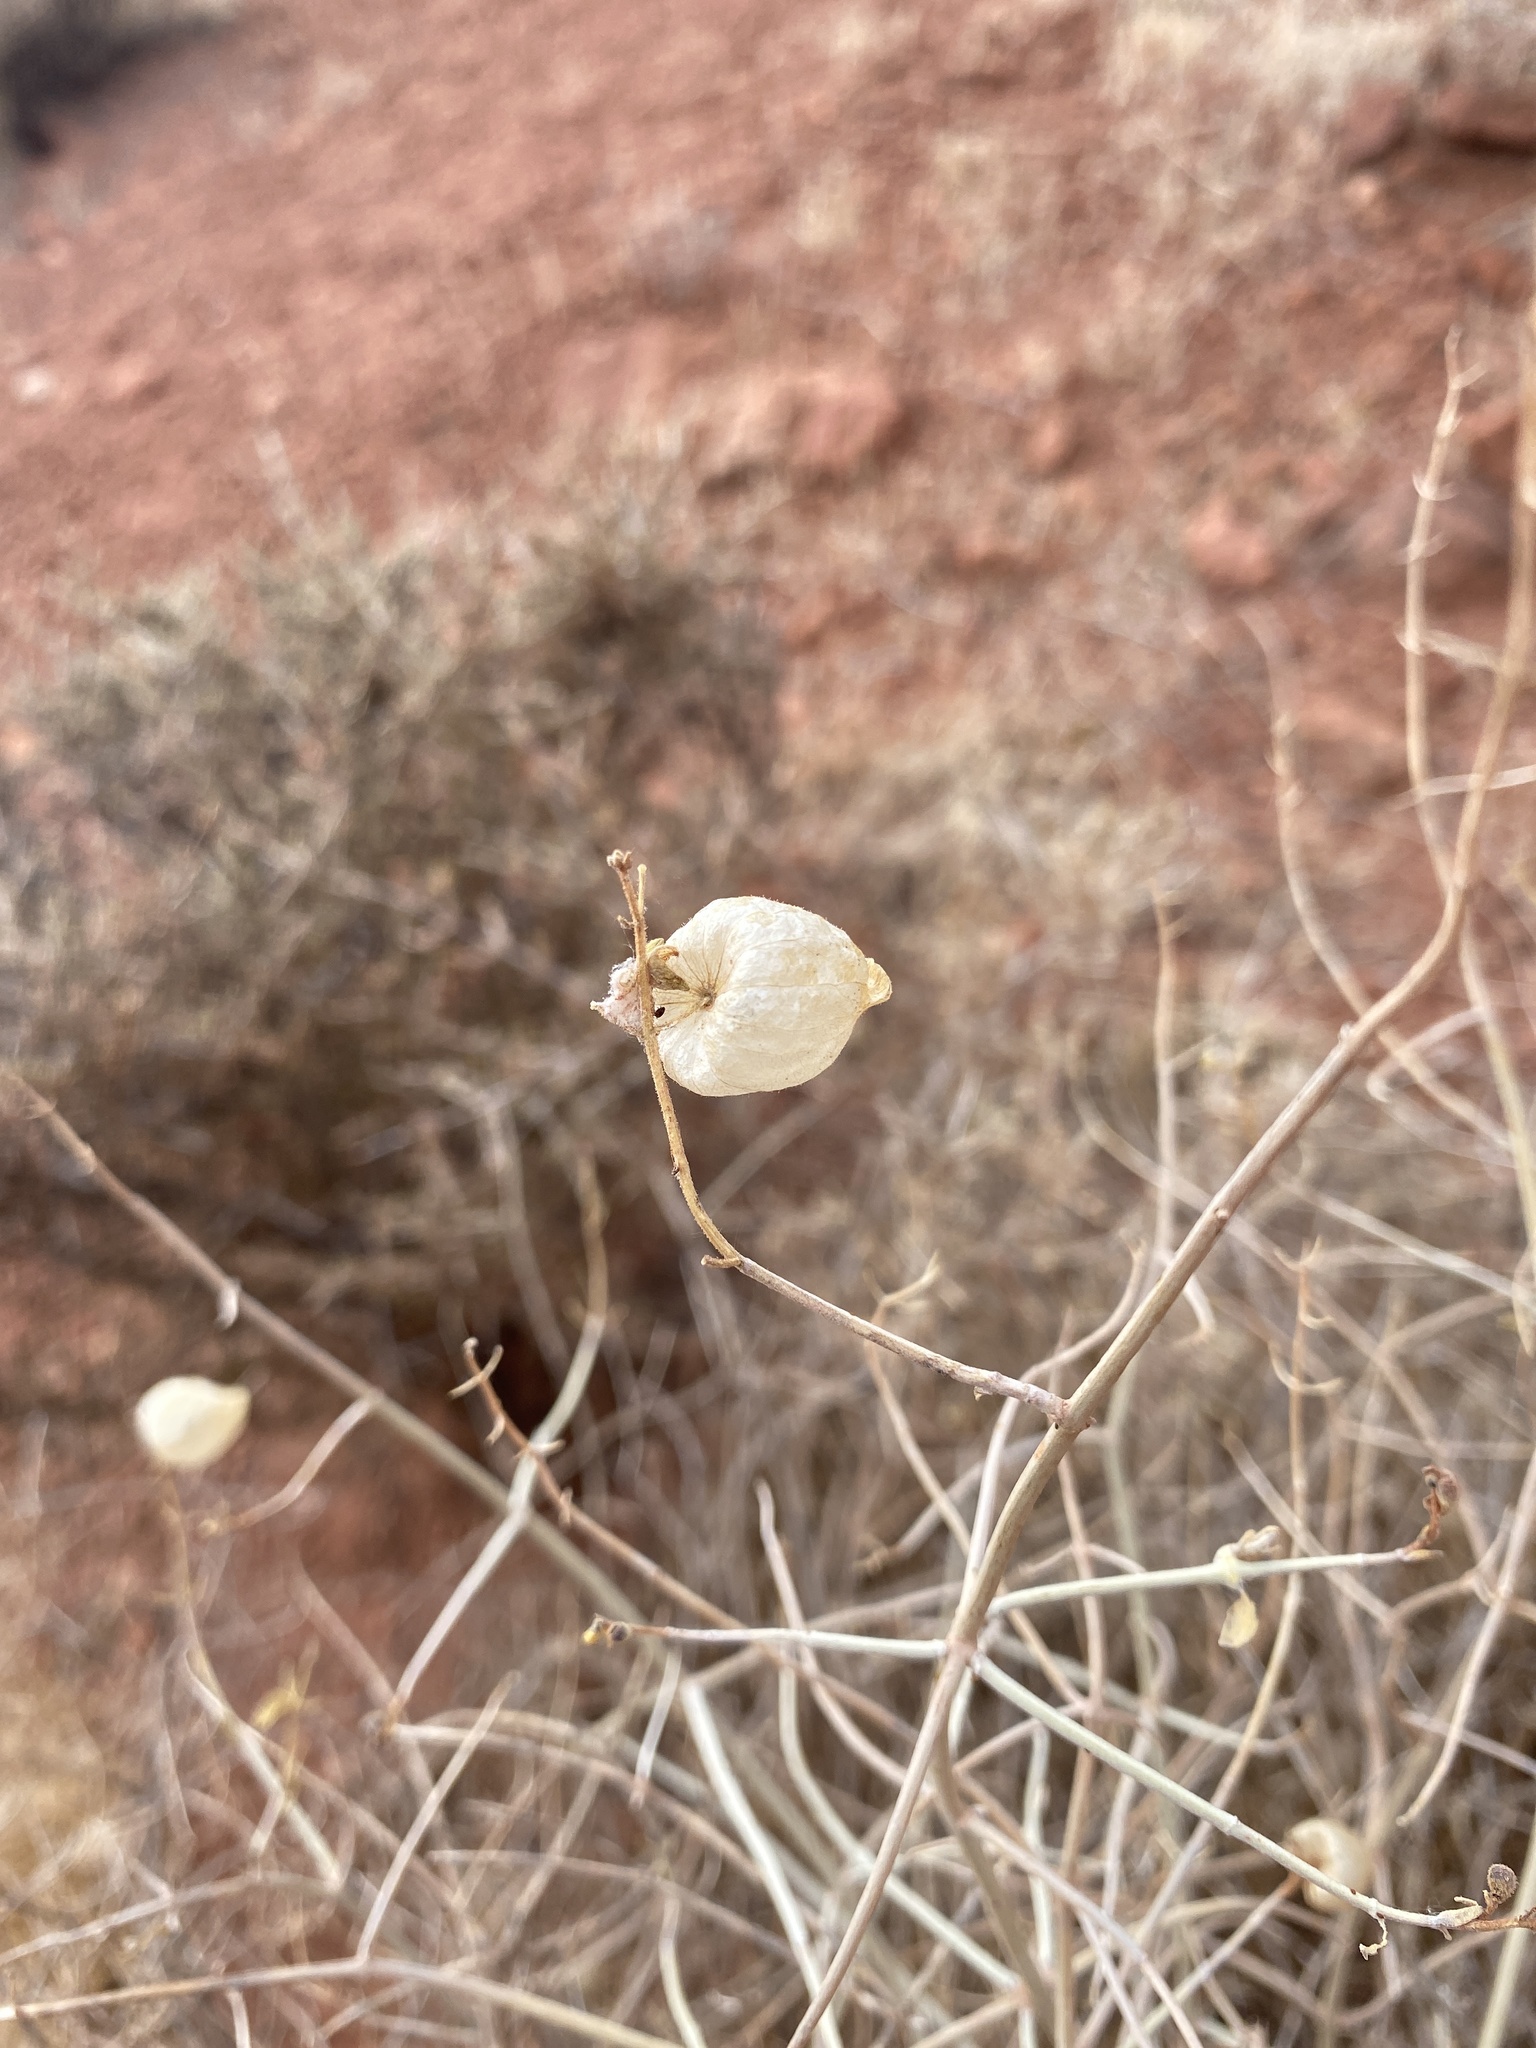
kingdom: Plantae
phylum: Tracheophyta
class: Magnoliopsida
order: Lamiales
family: Lamiaceae
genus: Scutellaria
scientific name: Scutellaria mexicana
